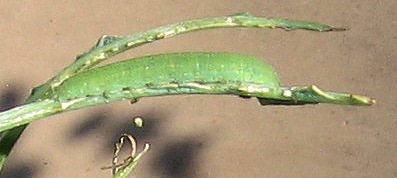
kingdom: Animalia
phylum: Arthropoda
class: Insecta
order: Lepidoptera
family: Pieridae
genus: Pieris
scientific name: Pieris rapae
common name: Small white
